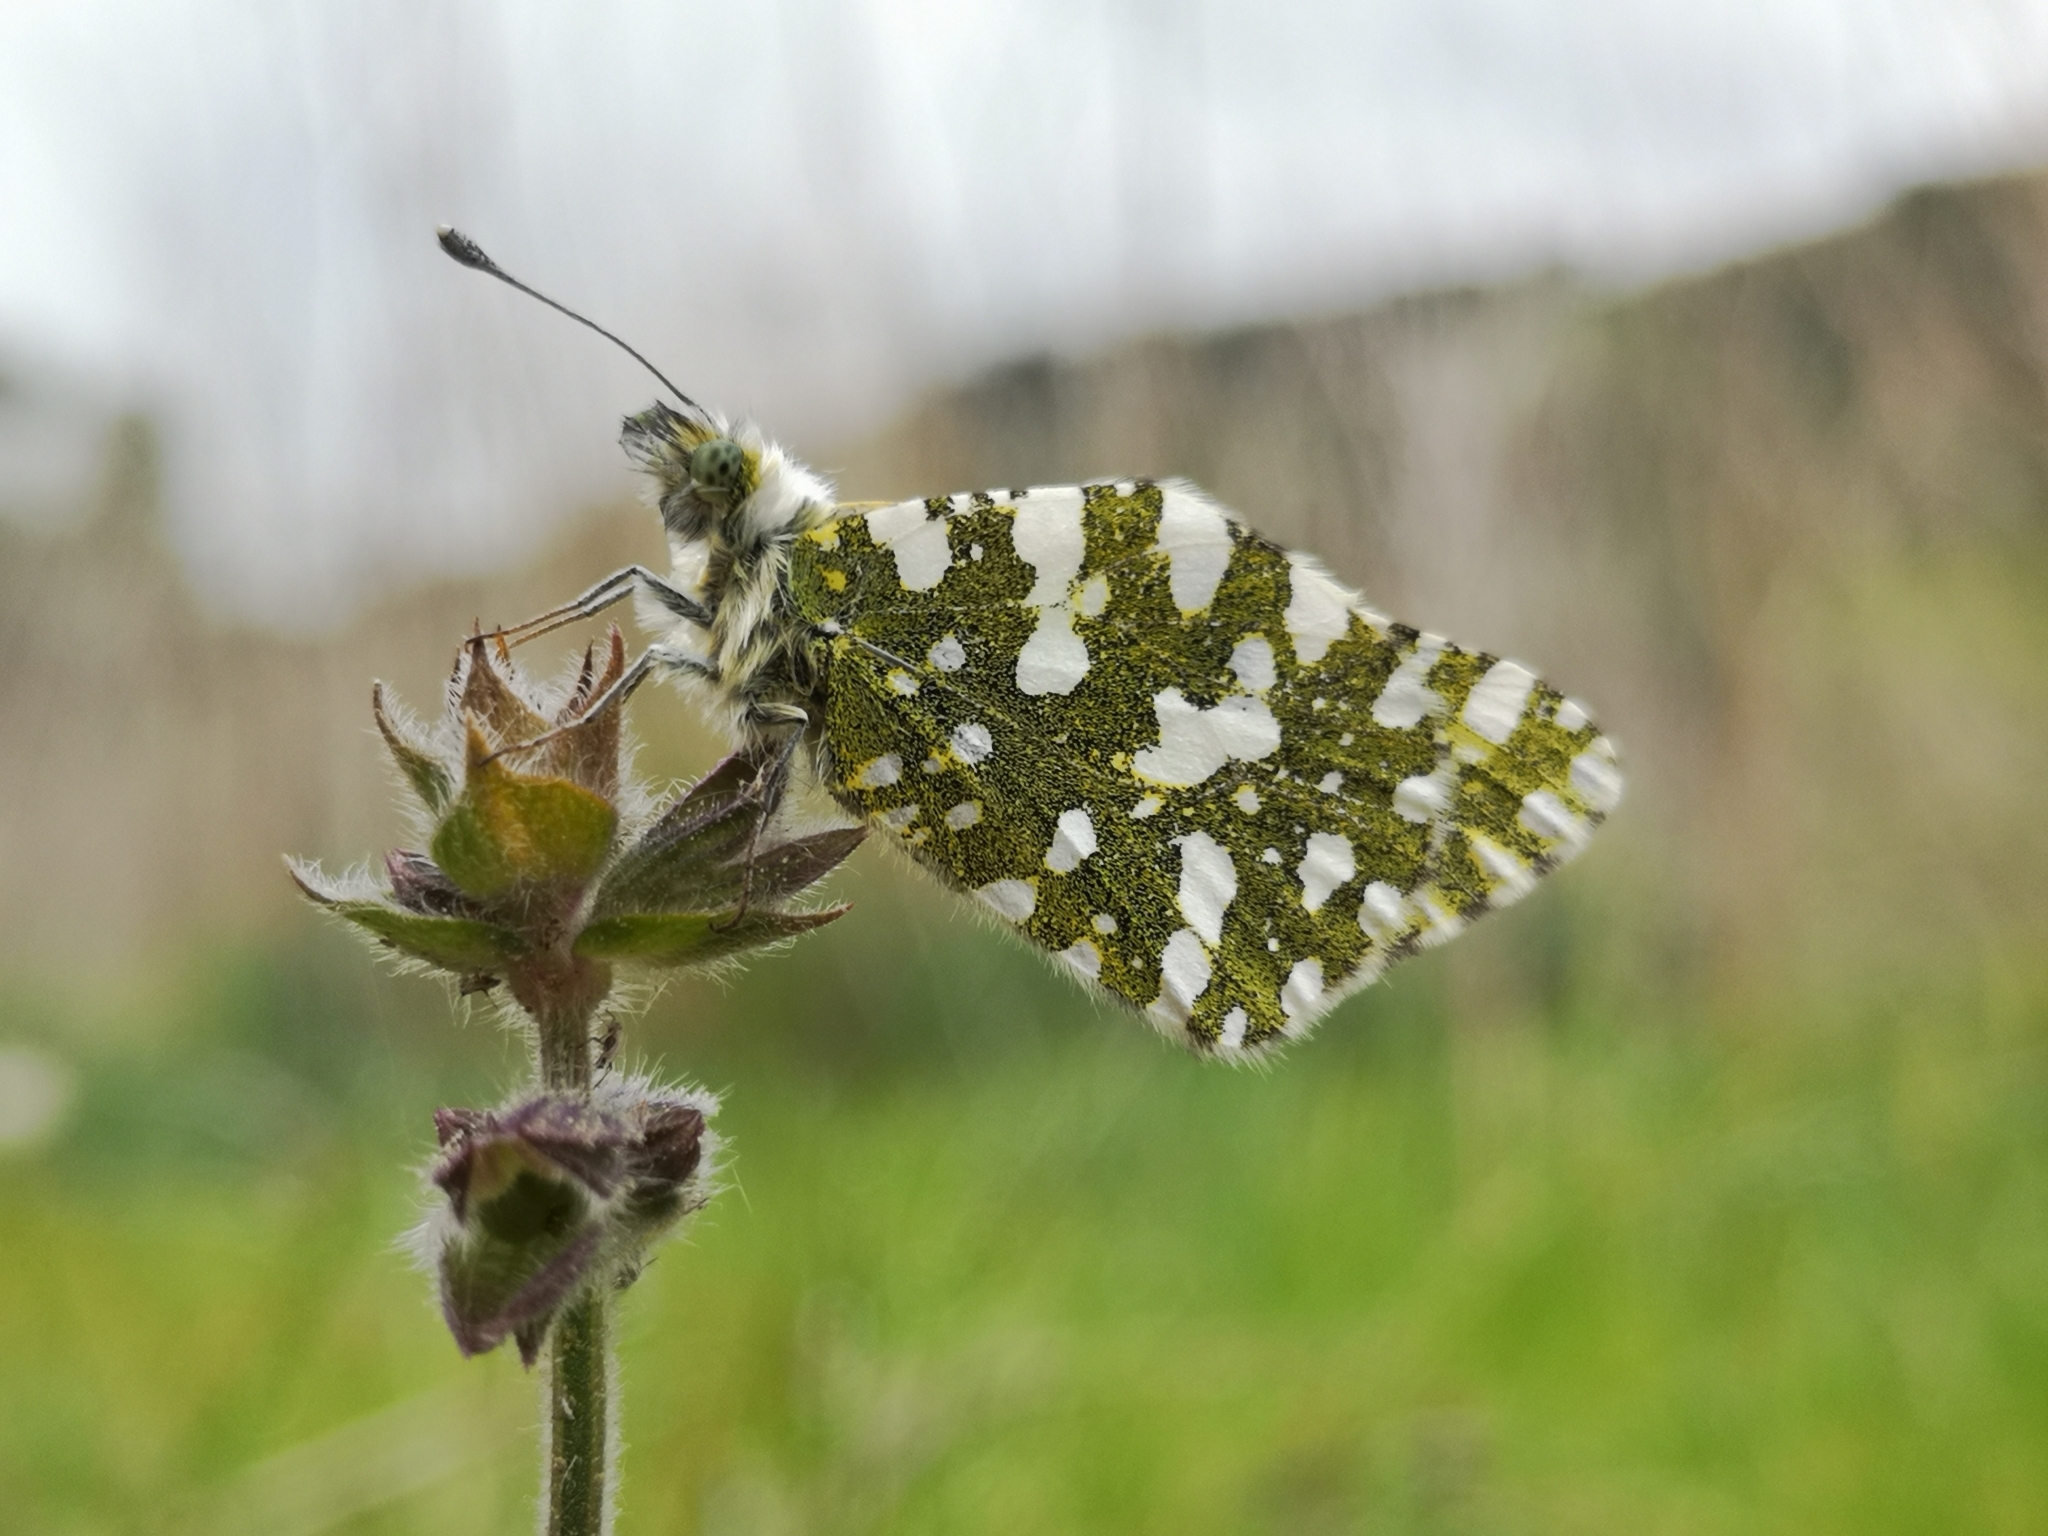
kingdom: Animalia
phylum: Arthropoda
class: Insecta
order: Lepidoptera
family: Pieridae
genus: Euchloe
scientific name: Euchloe crameri
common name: Western dappled white
